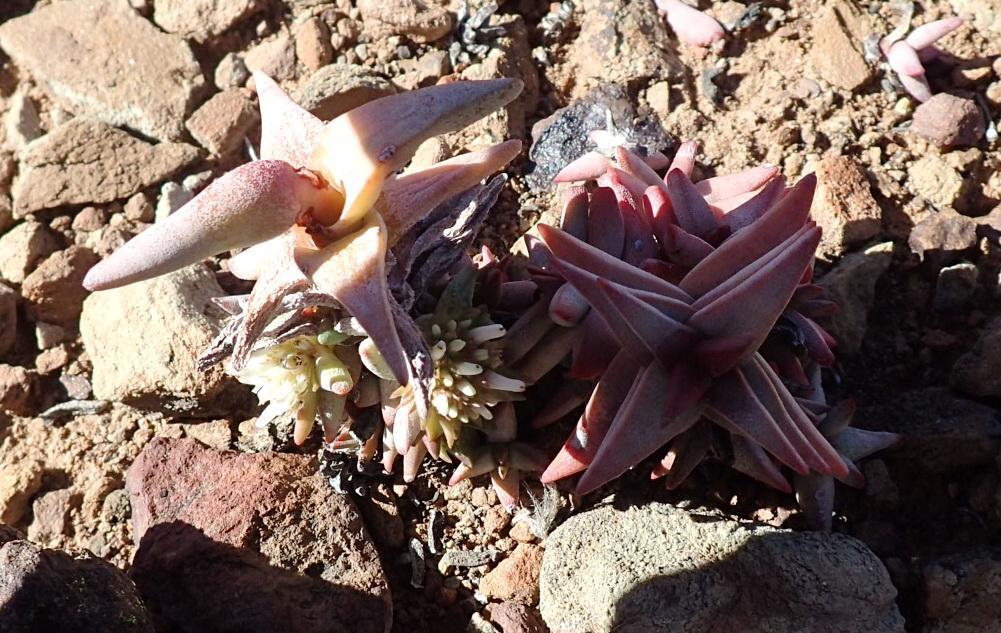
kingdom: Plantae
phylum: Tracheophyta
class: Magnoliopsida
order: Saxifragales
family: Crassulaceae
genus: Crassula
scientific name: Crassula congesta
